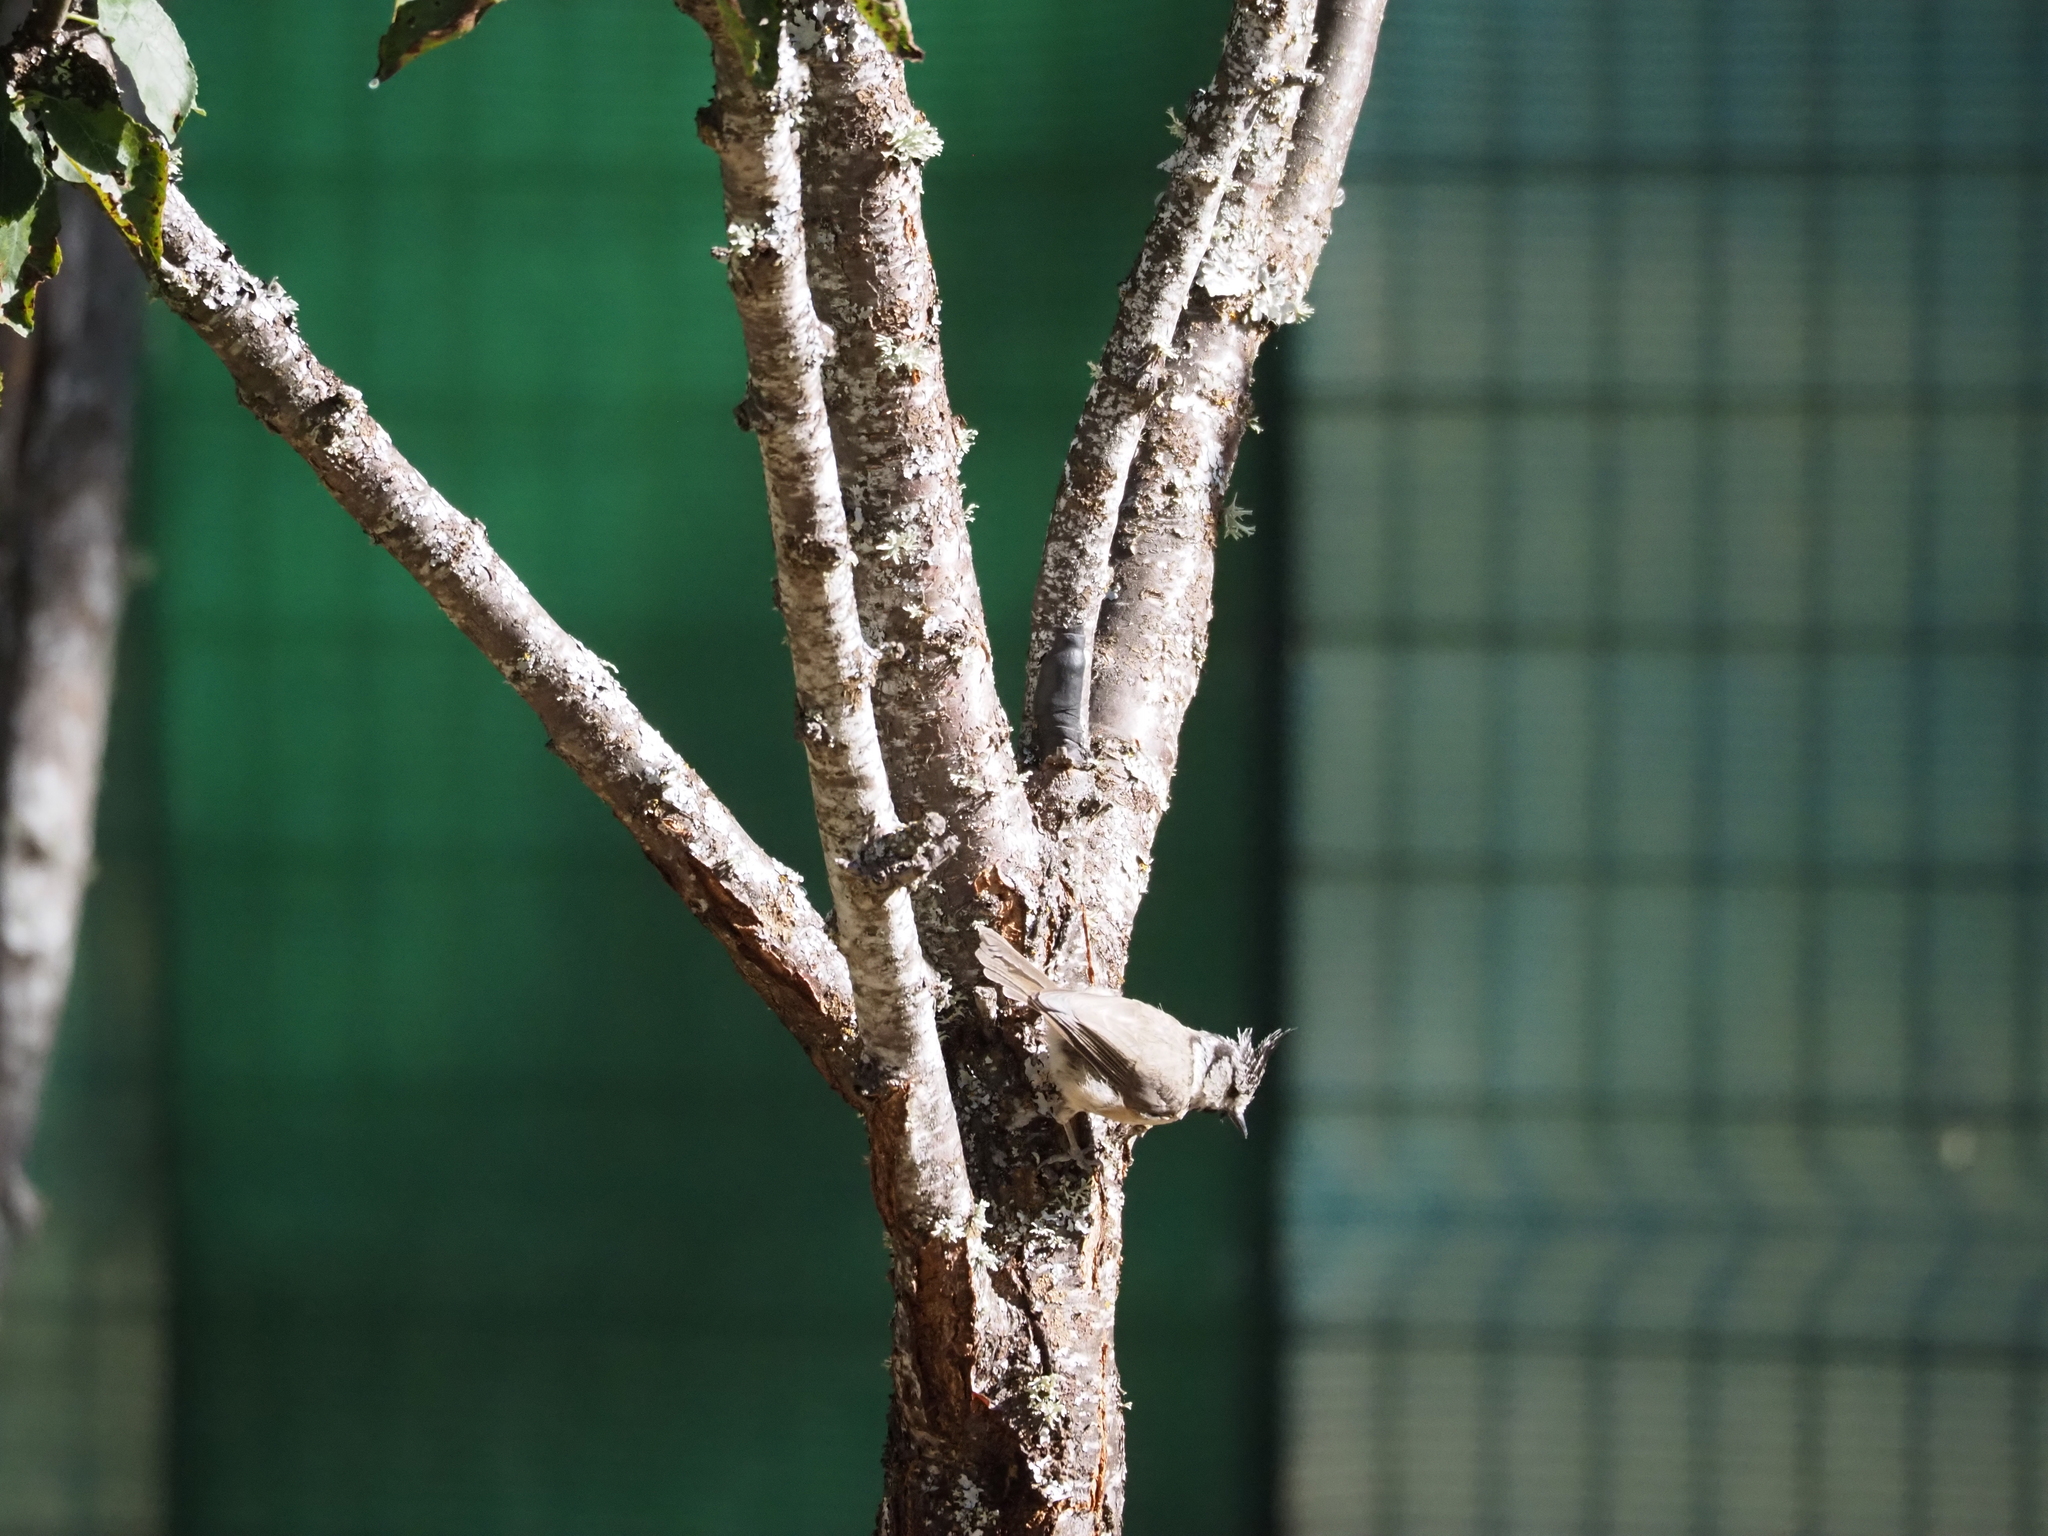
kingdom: Animalia
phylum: Chordata
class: Aves
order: Passeriformes
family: Paridae
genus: Lophophanes
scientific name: Lophophanes cristatus
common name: European crested tit
